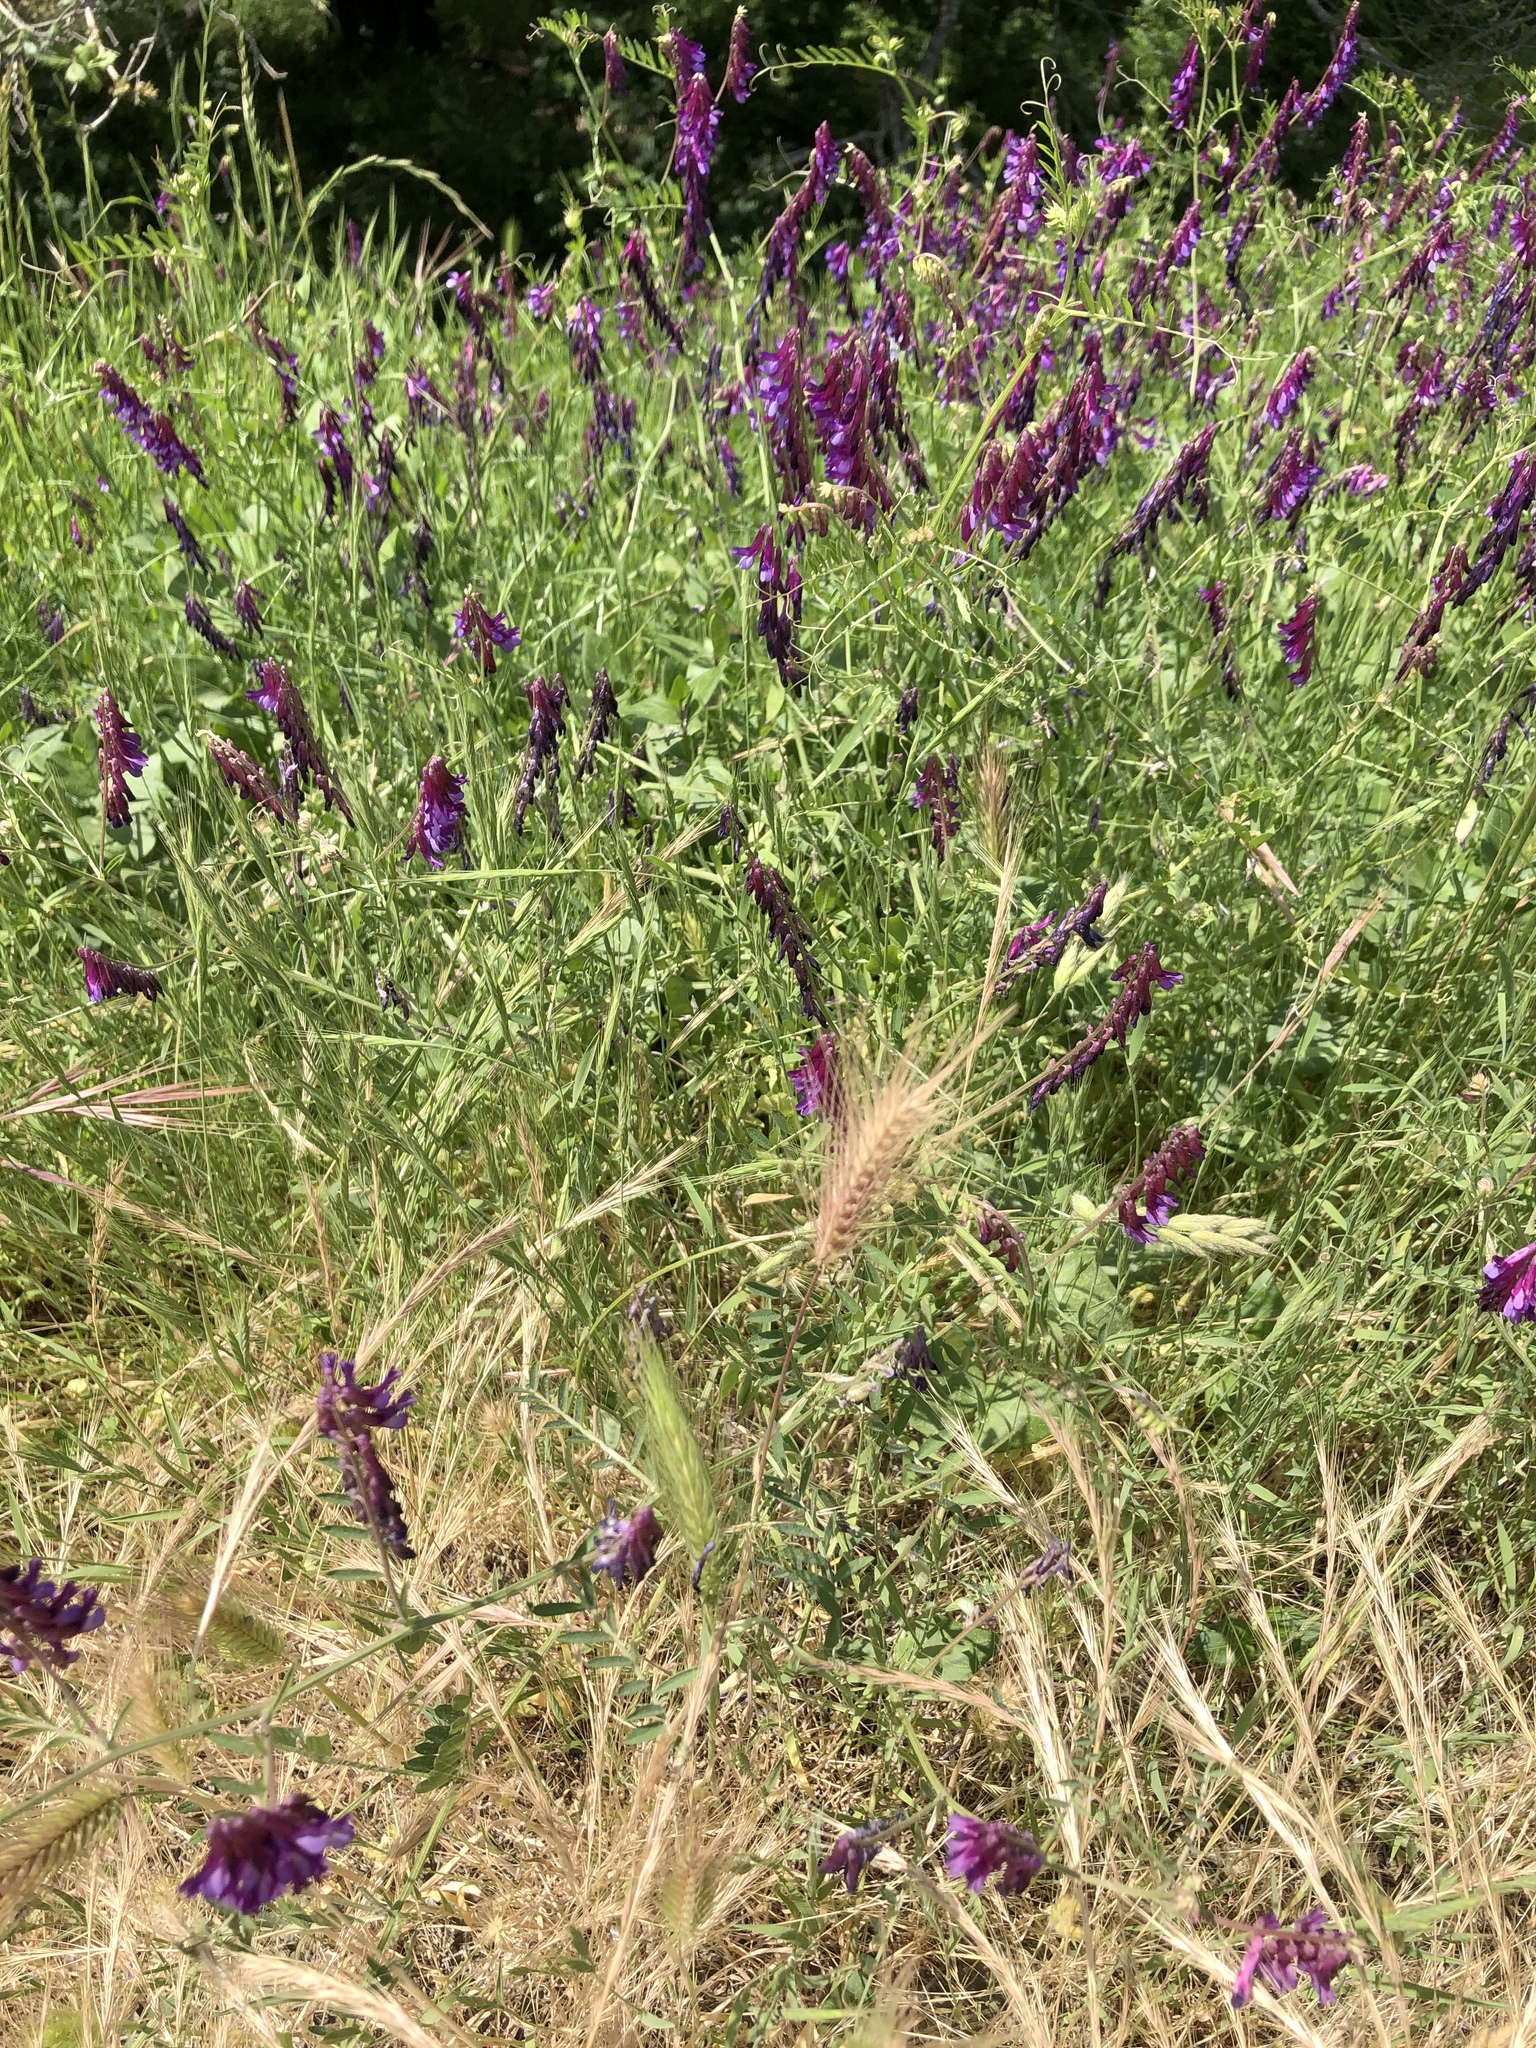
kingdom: Plantae
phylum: Tracheophyta
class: Magnoliopsida
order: Fabales
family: Fabaceae
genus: Vicia
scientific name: Vicia villosa
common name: Fodder vetch
